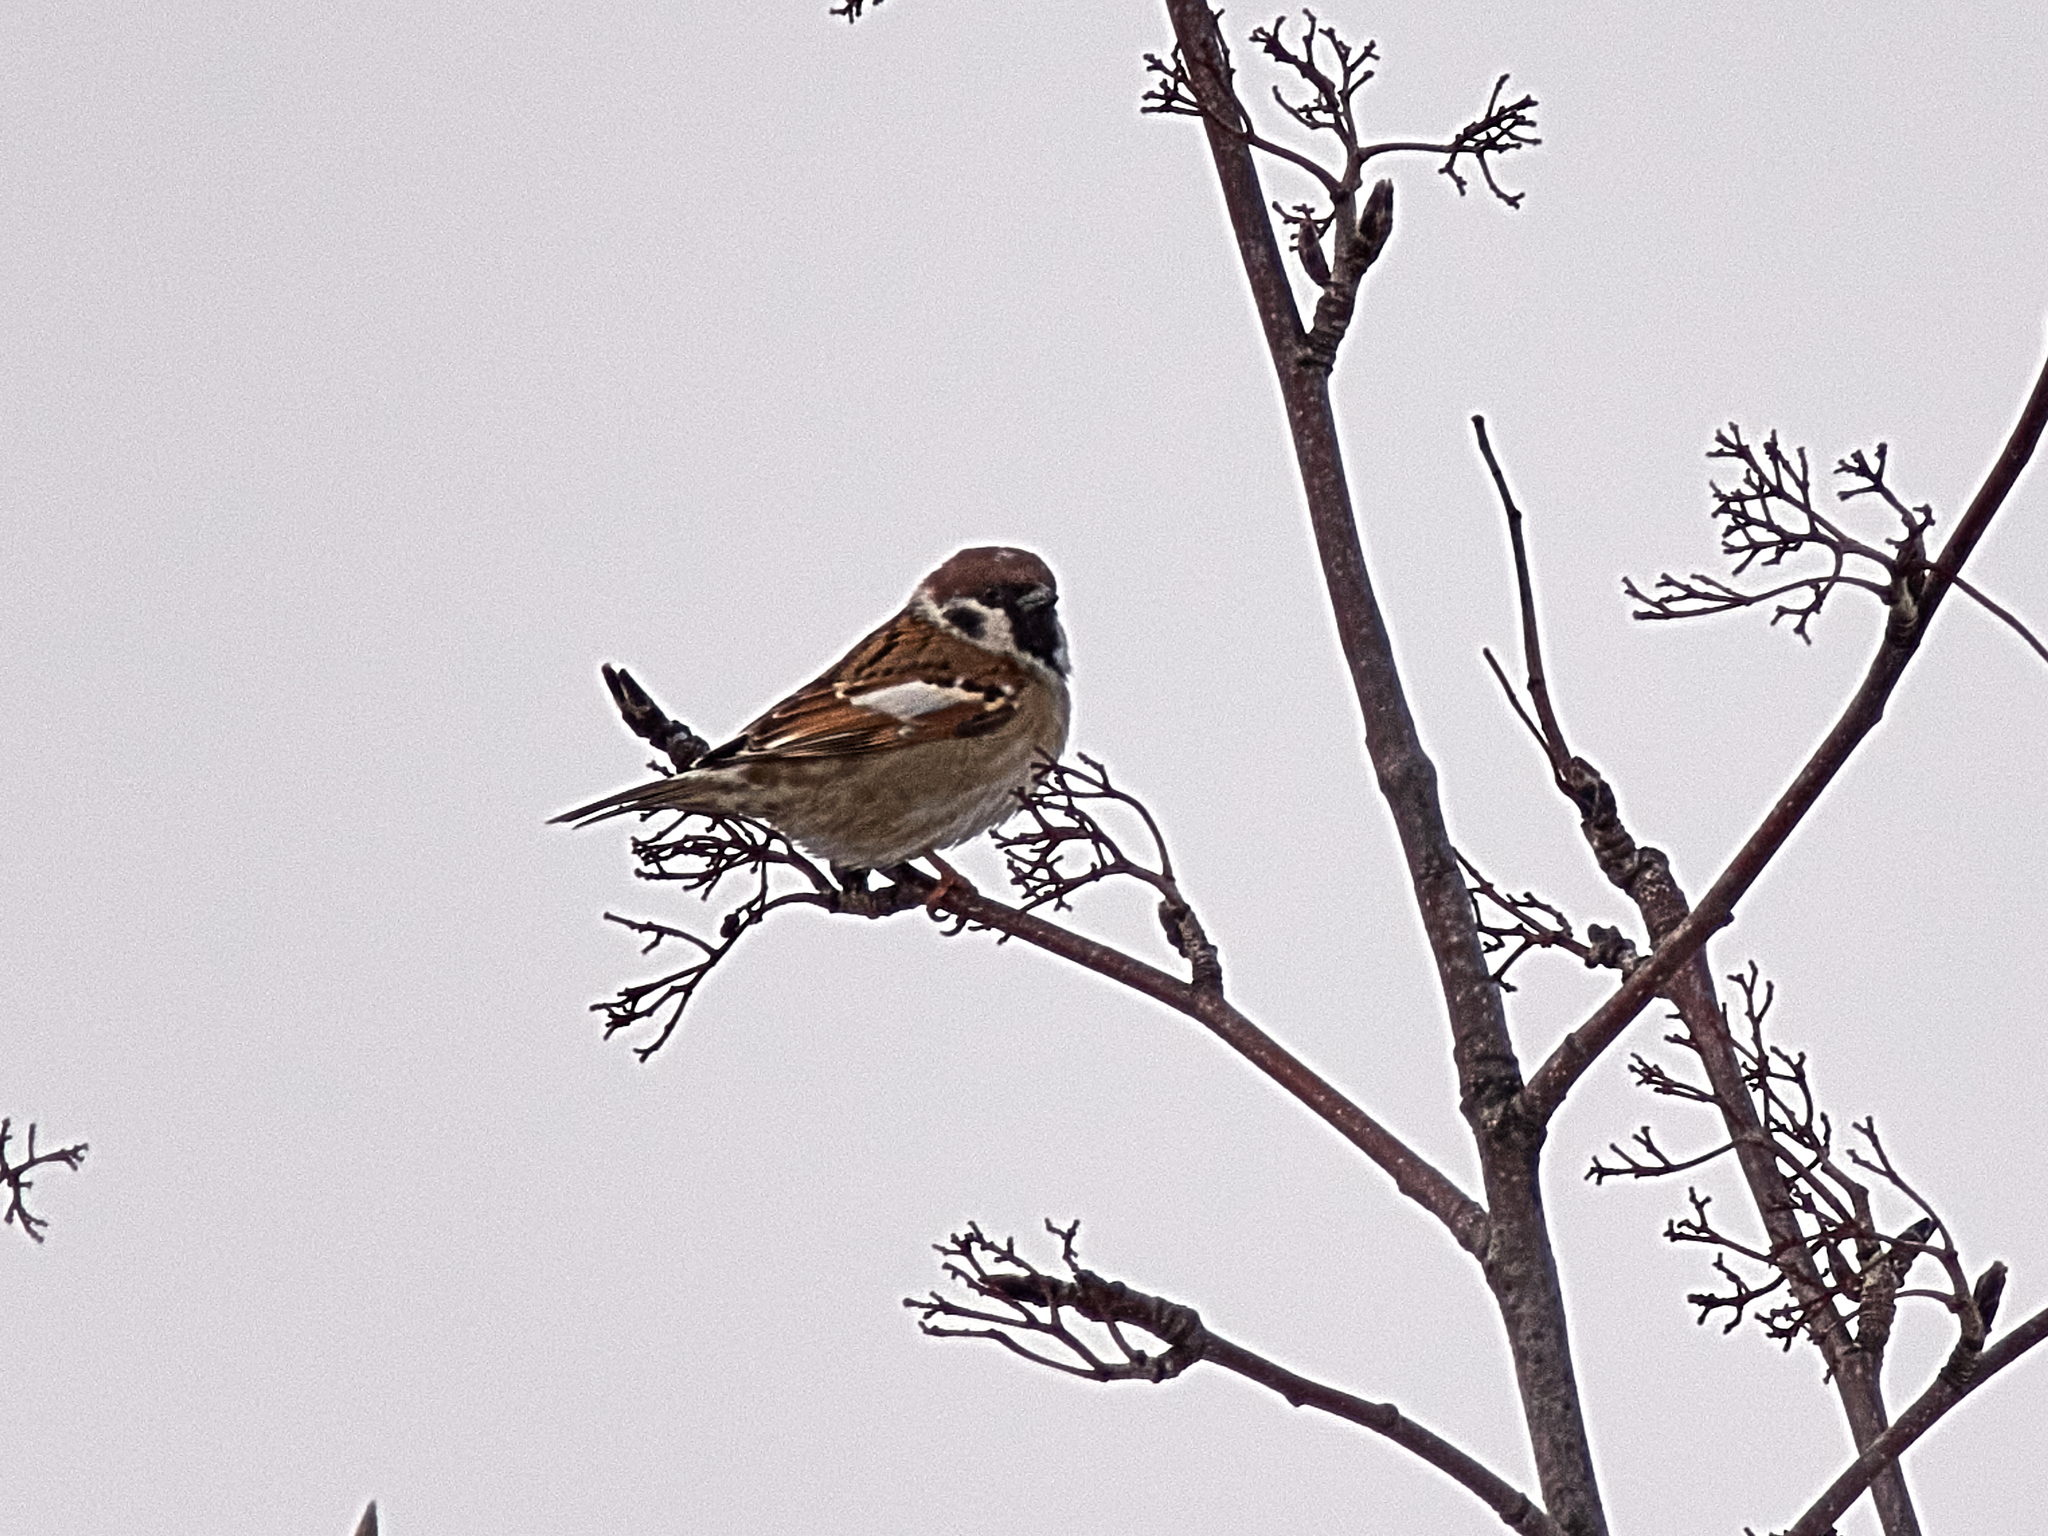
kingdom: Animalia
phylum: Chordata
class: Aves
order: Passeriformes
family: Passeridae
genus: Passer
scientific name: Passer montanus
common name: Eurasian tree sparrow
